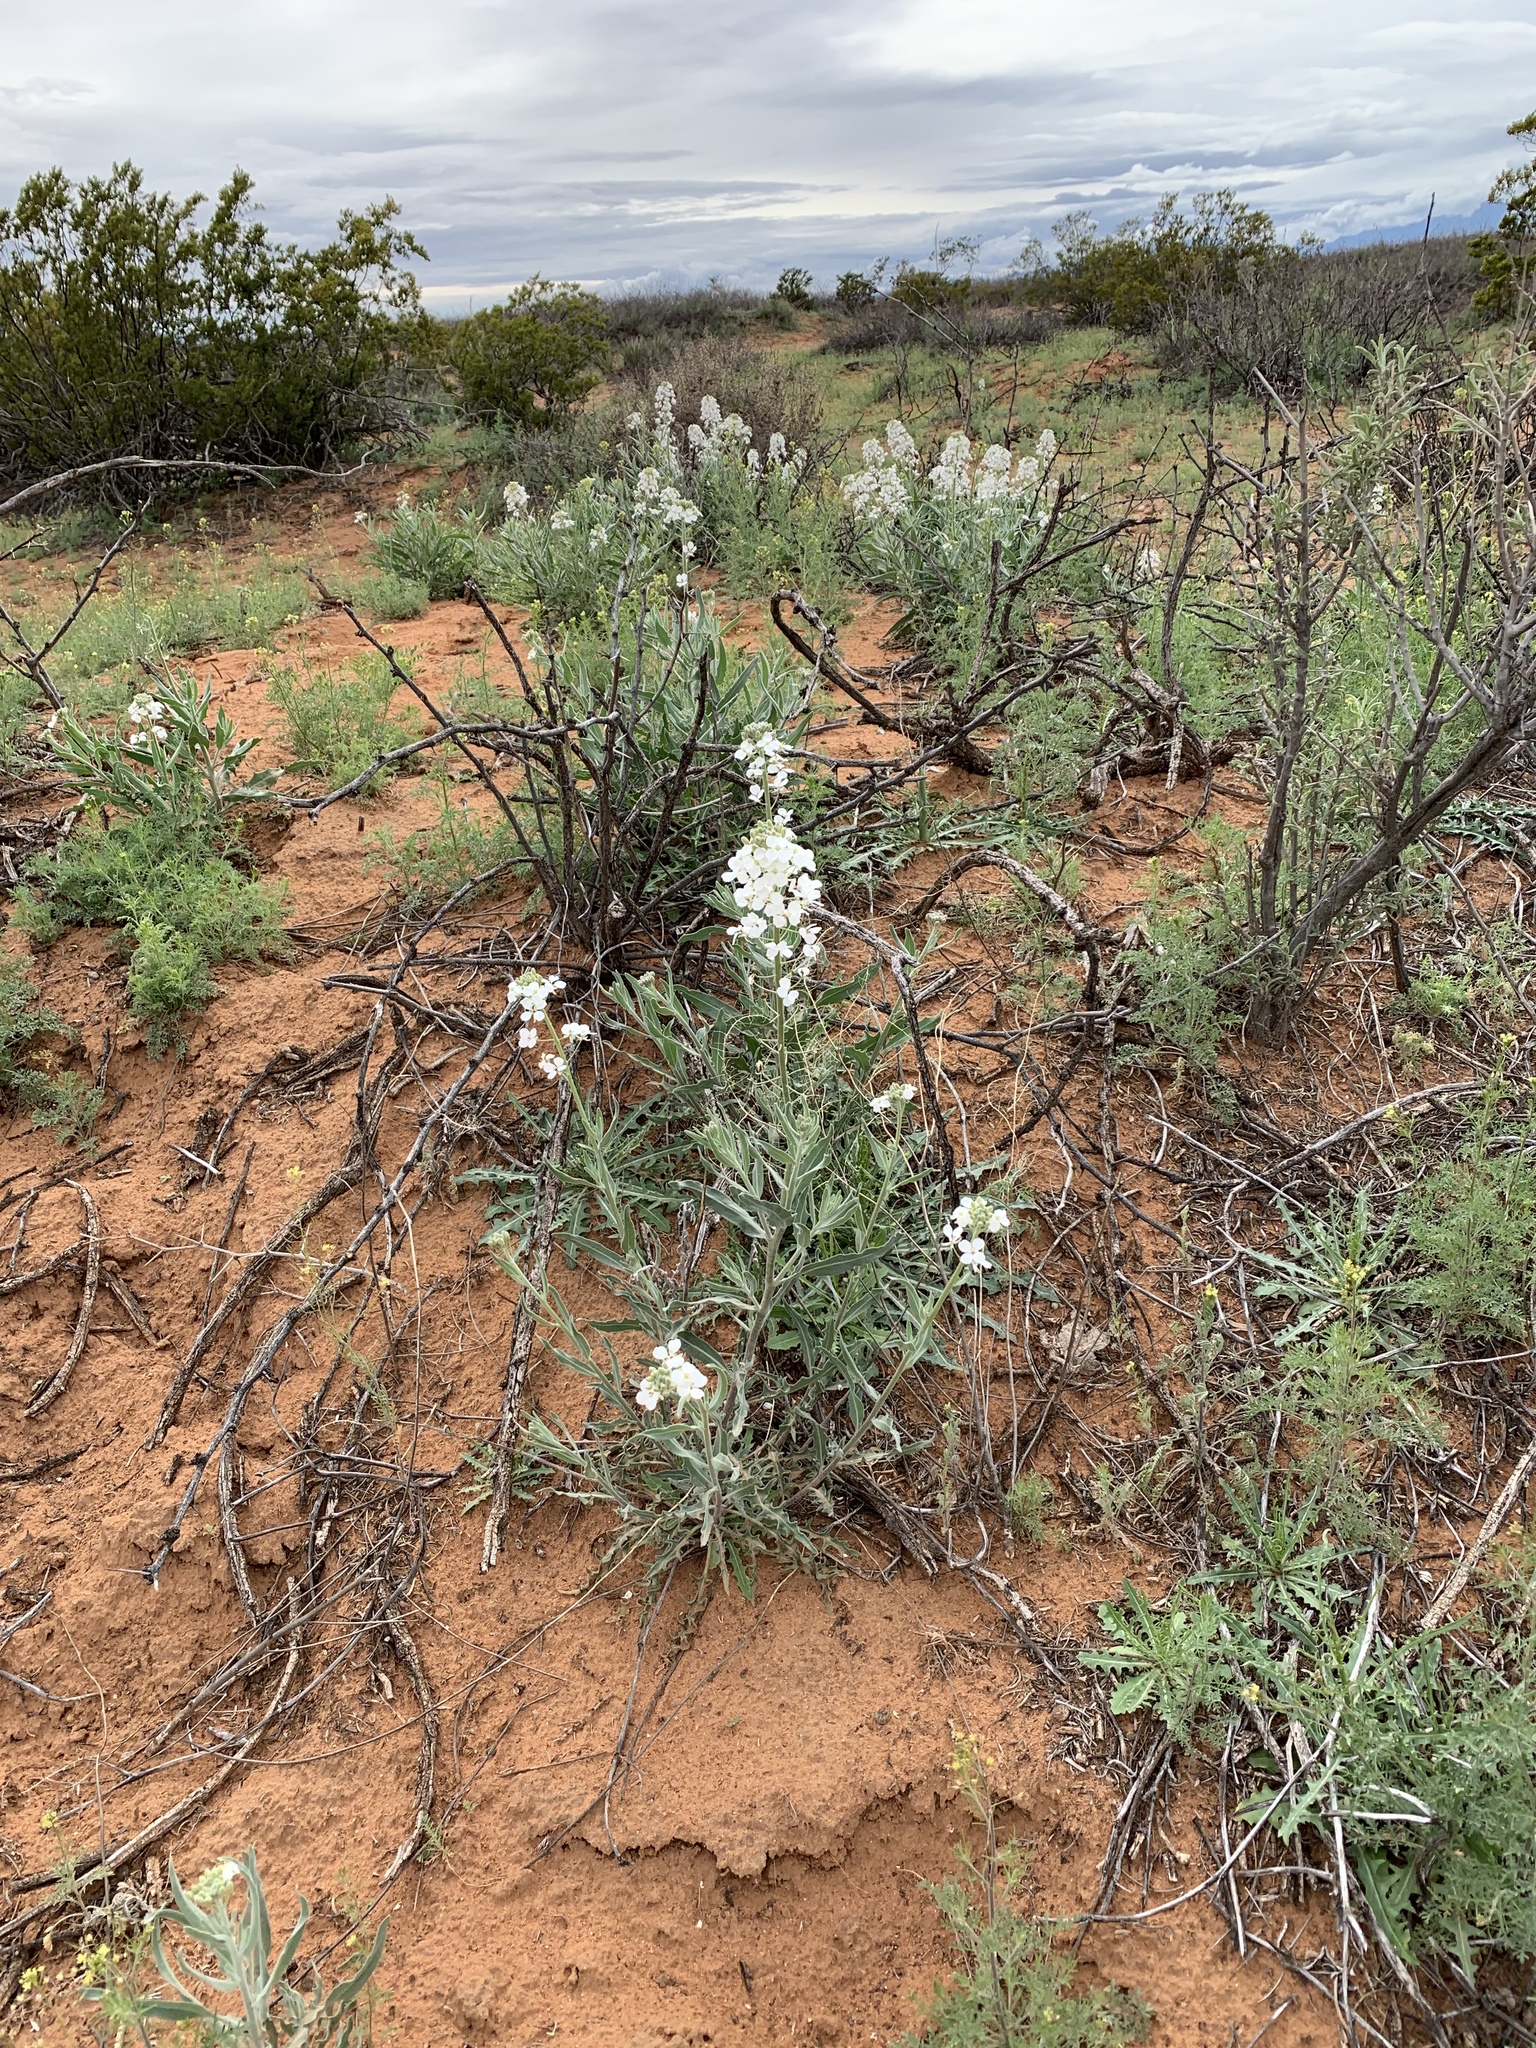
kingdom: Plantae
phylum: Tracheophyta
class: Magnoliopsida
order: Brassicales
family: Brassicaceae
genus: Dimorphocarpa
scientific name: Dimorphocarpa wislizenii
